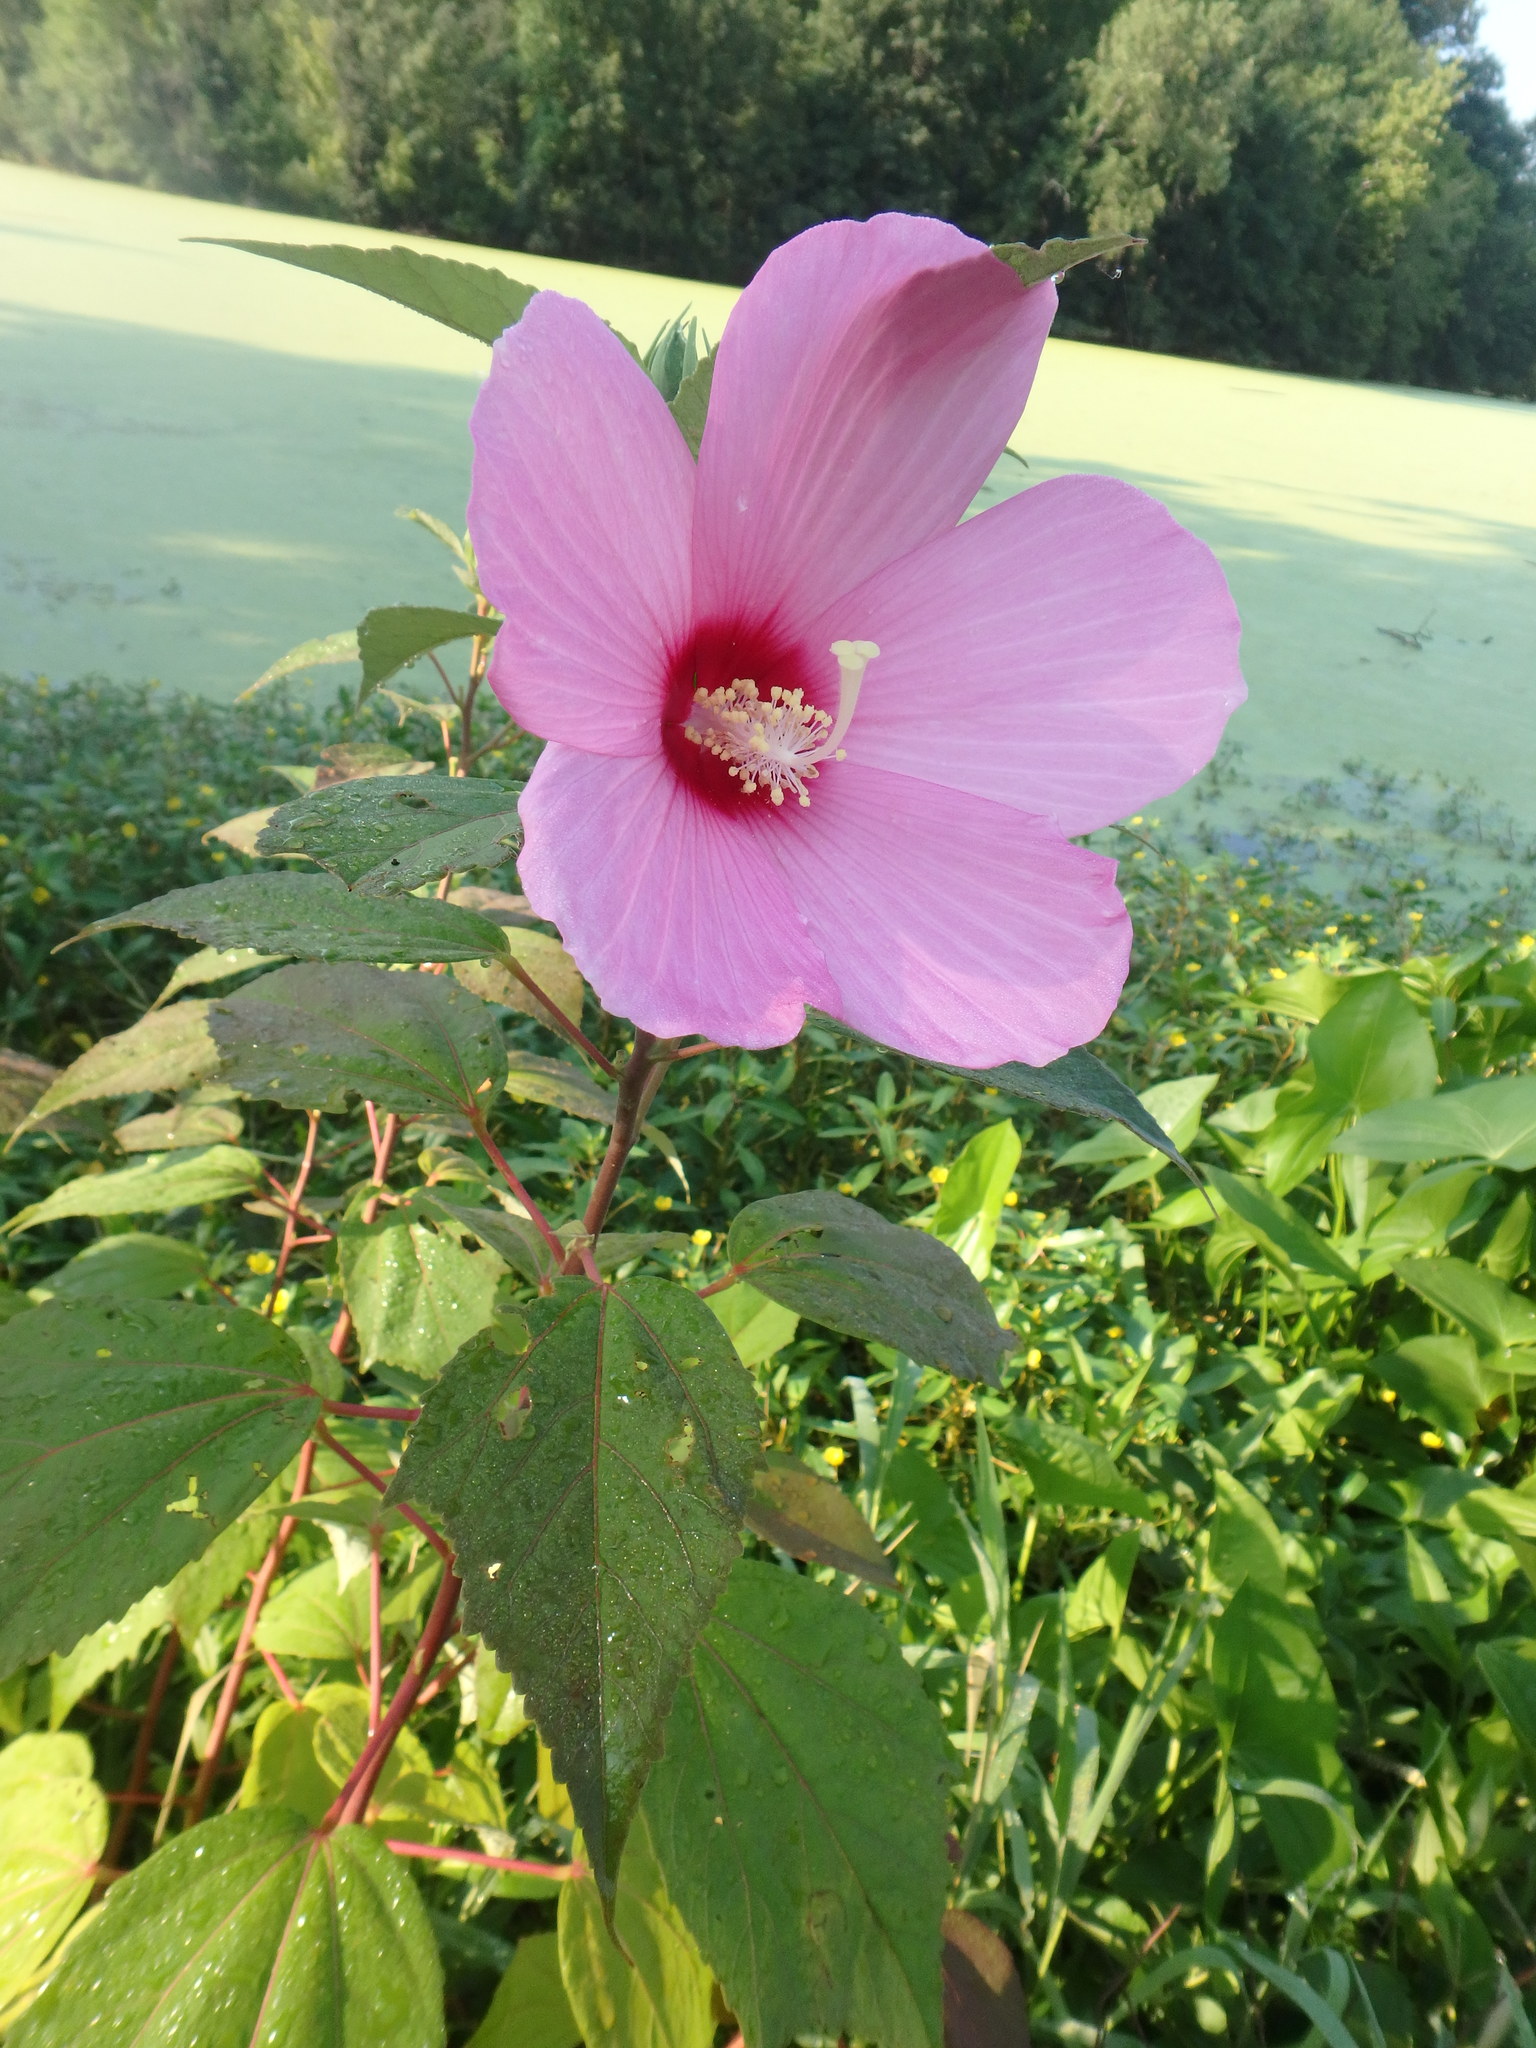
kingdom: Plantae
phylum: Tracheophyta
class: Magnoliopsida
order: Malvales
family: Malvaceae
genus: Hibiscus
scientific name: Hibiscus moscheutos
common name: Common rose-mallow
